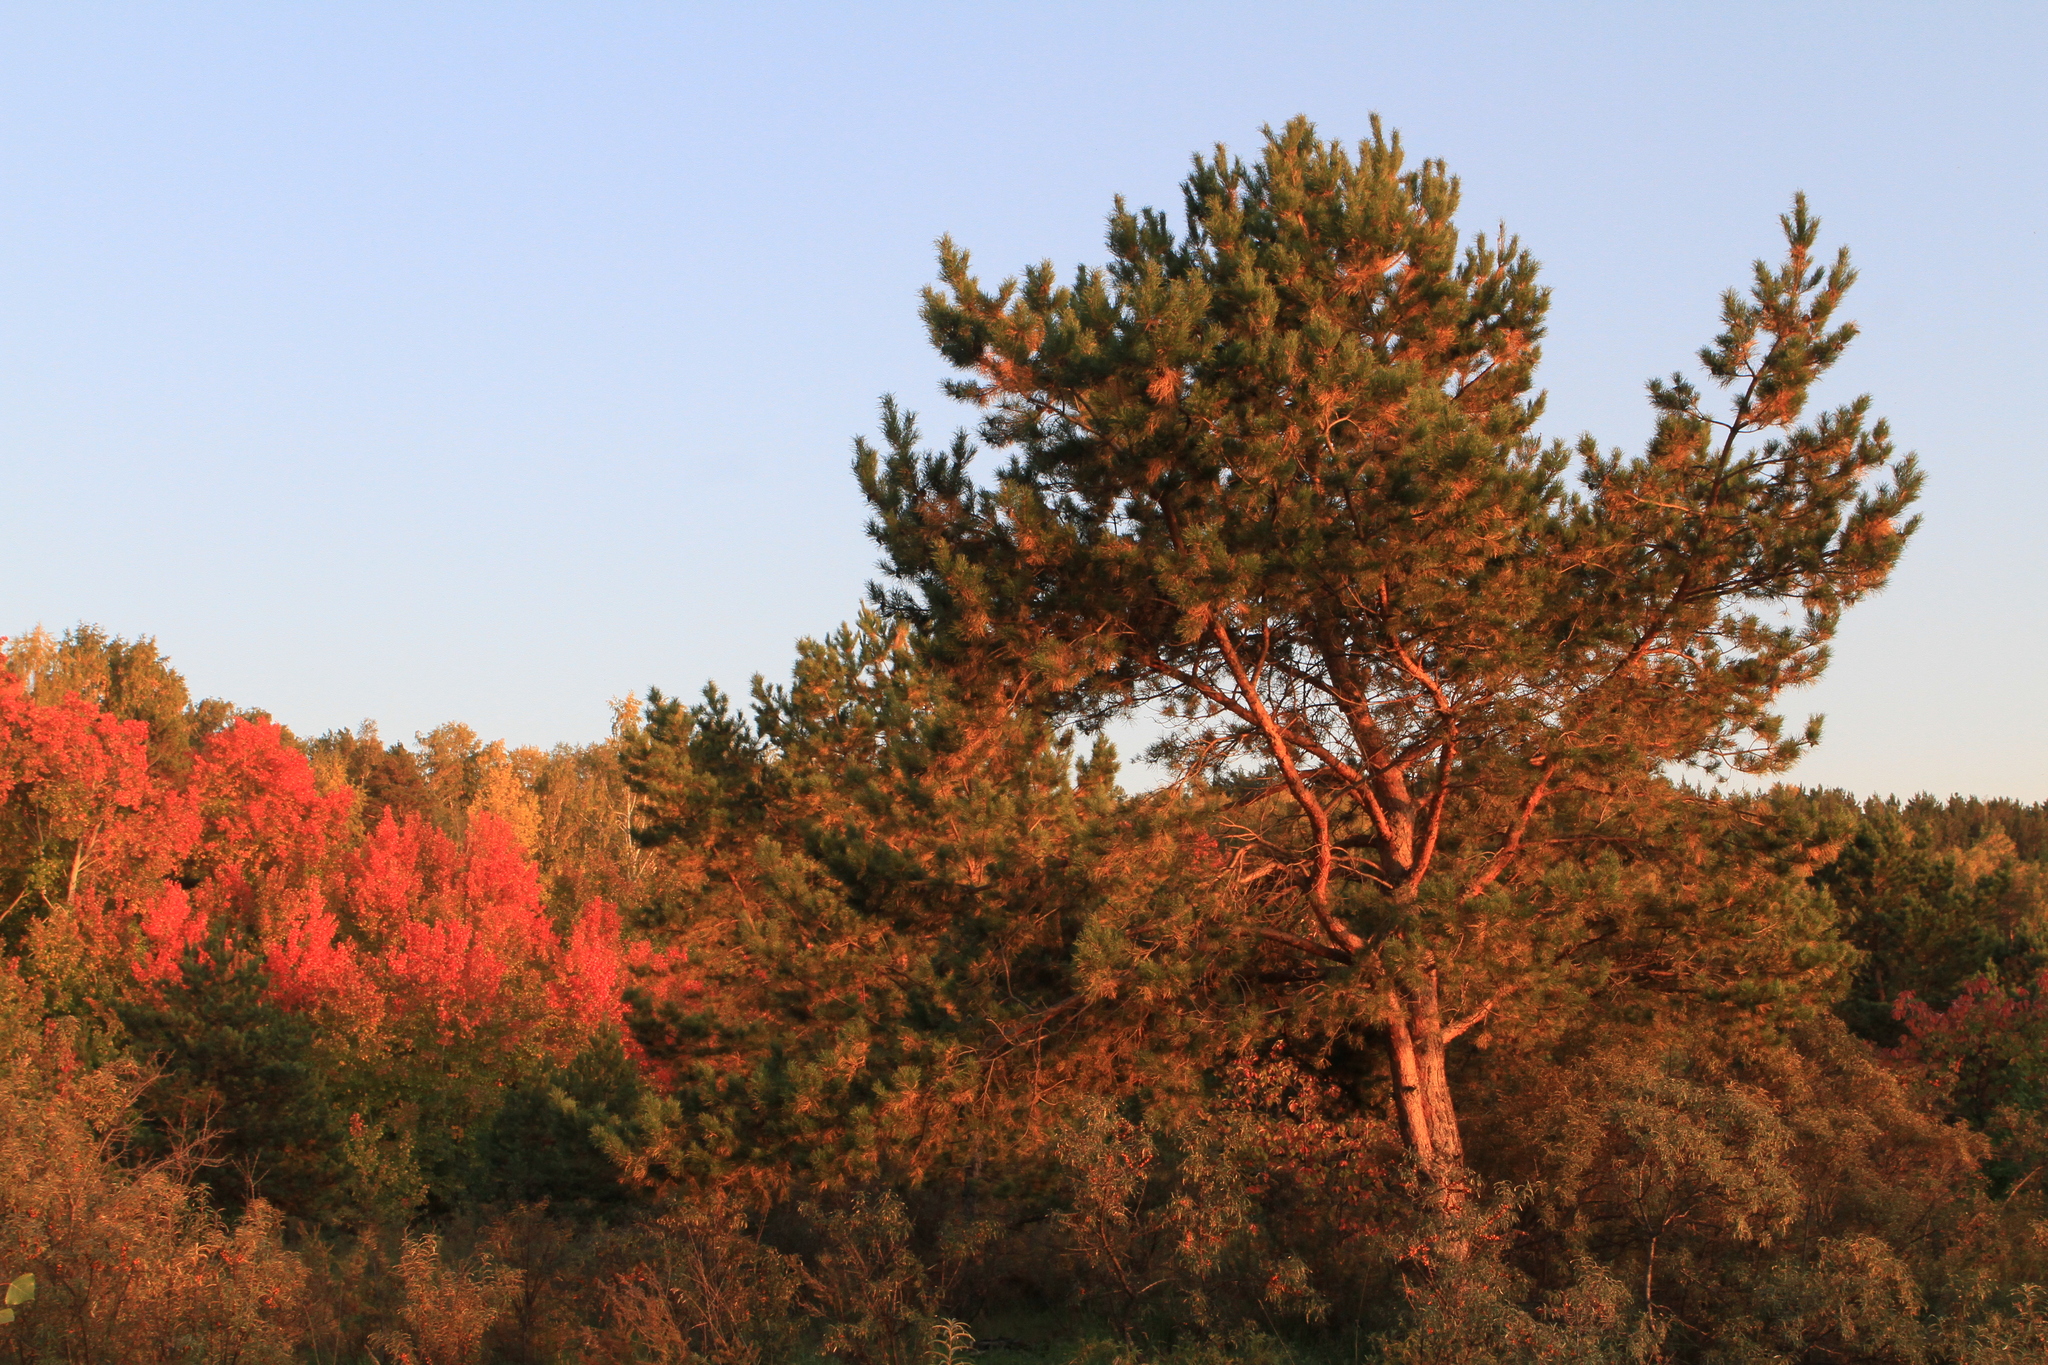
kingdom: Plantae
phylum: Tracheophyta
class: Pinopsida
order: Pinales
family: Pinaceae
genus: Pinus
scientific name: Pinus sylvestris
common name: Scots pine
